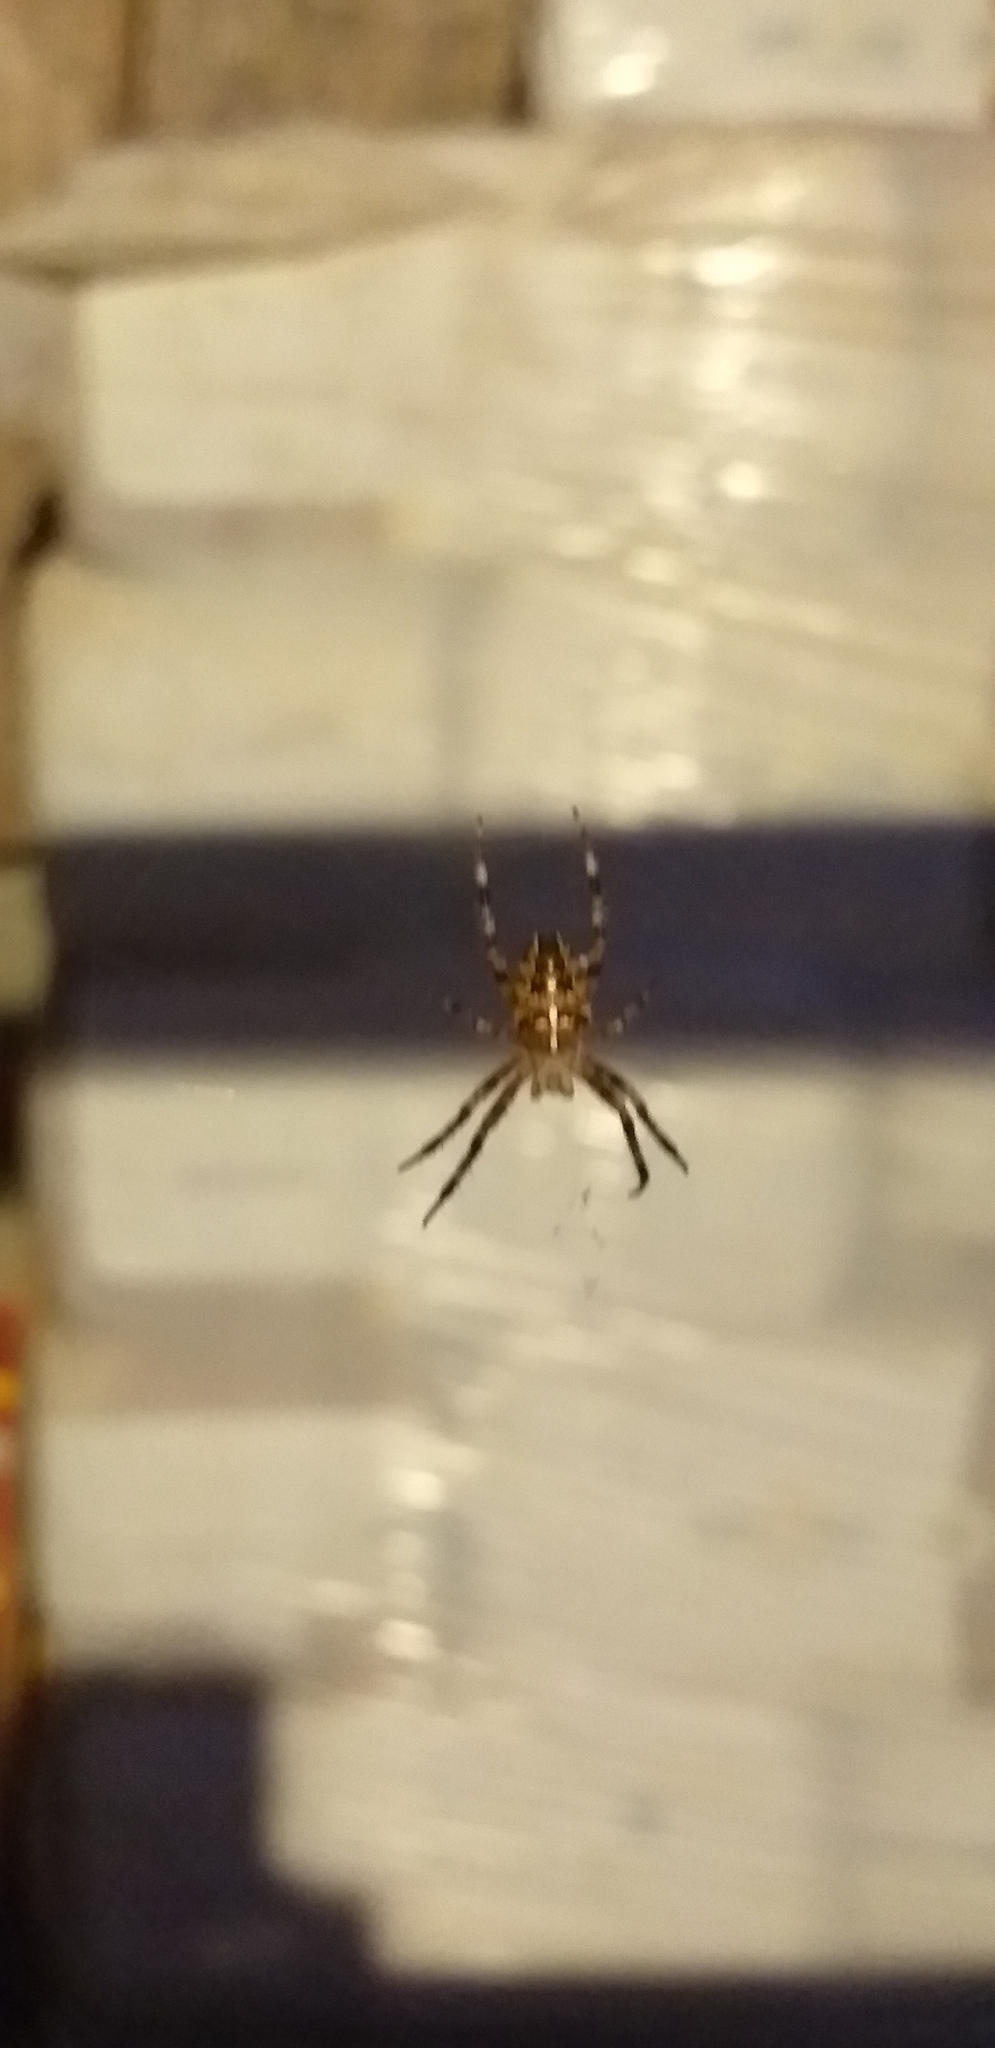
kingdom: Animalia
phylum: Arthropoda
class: Arachnida
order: Araneae
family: Araneidae
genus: Araneus
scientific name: Araneus diadematus
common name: Cross orbweaver
